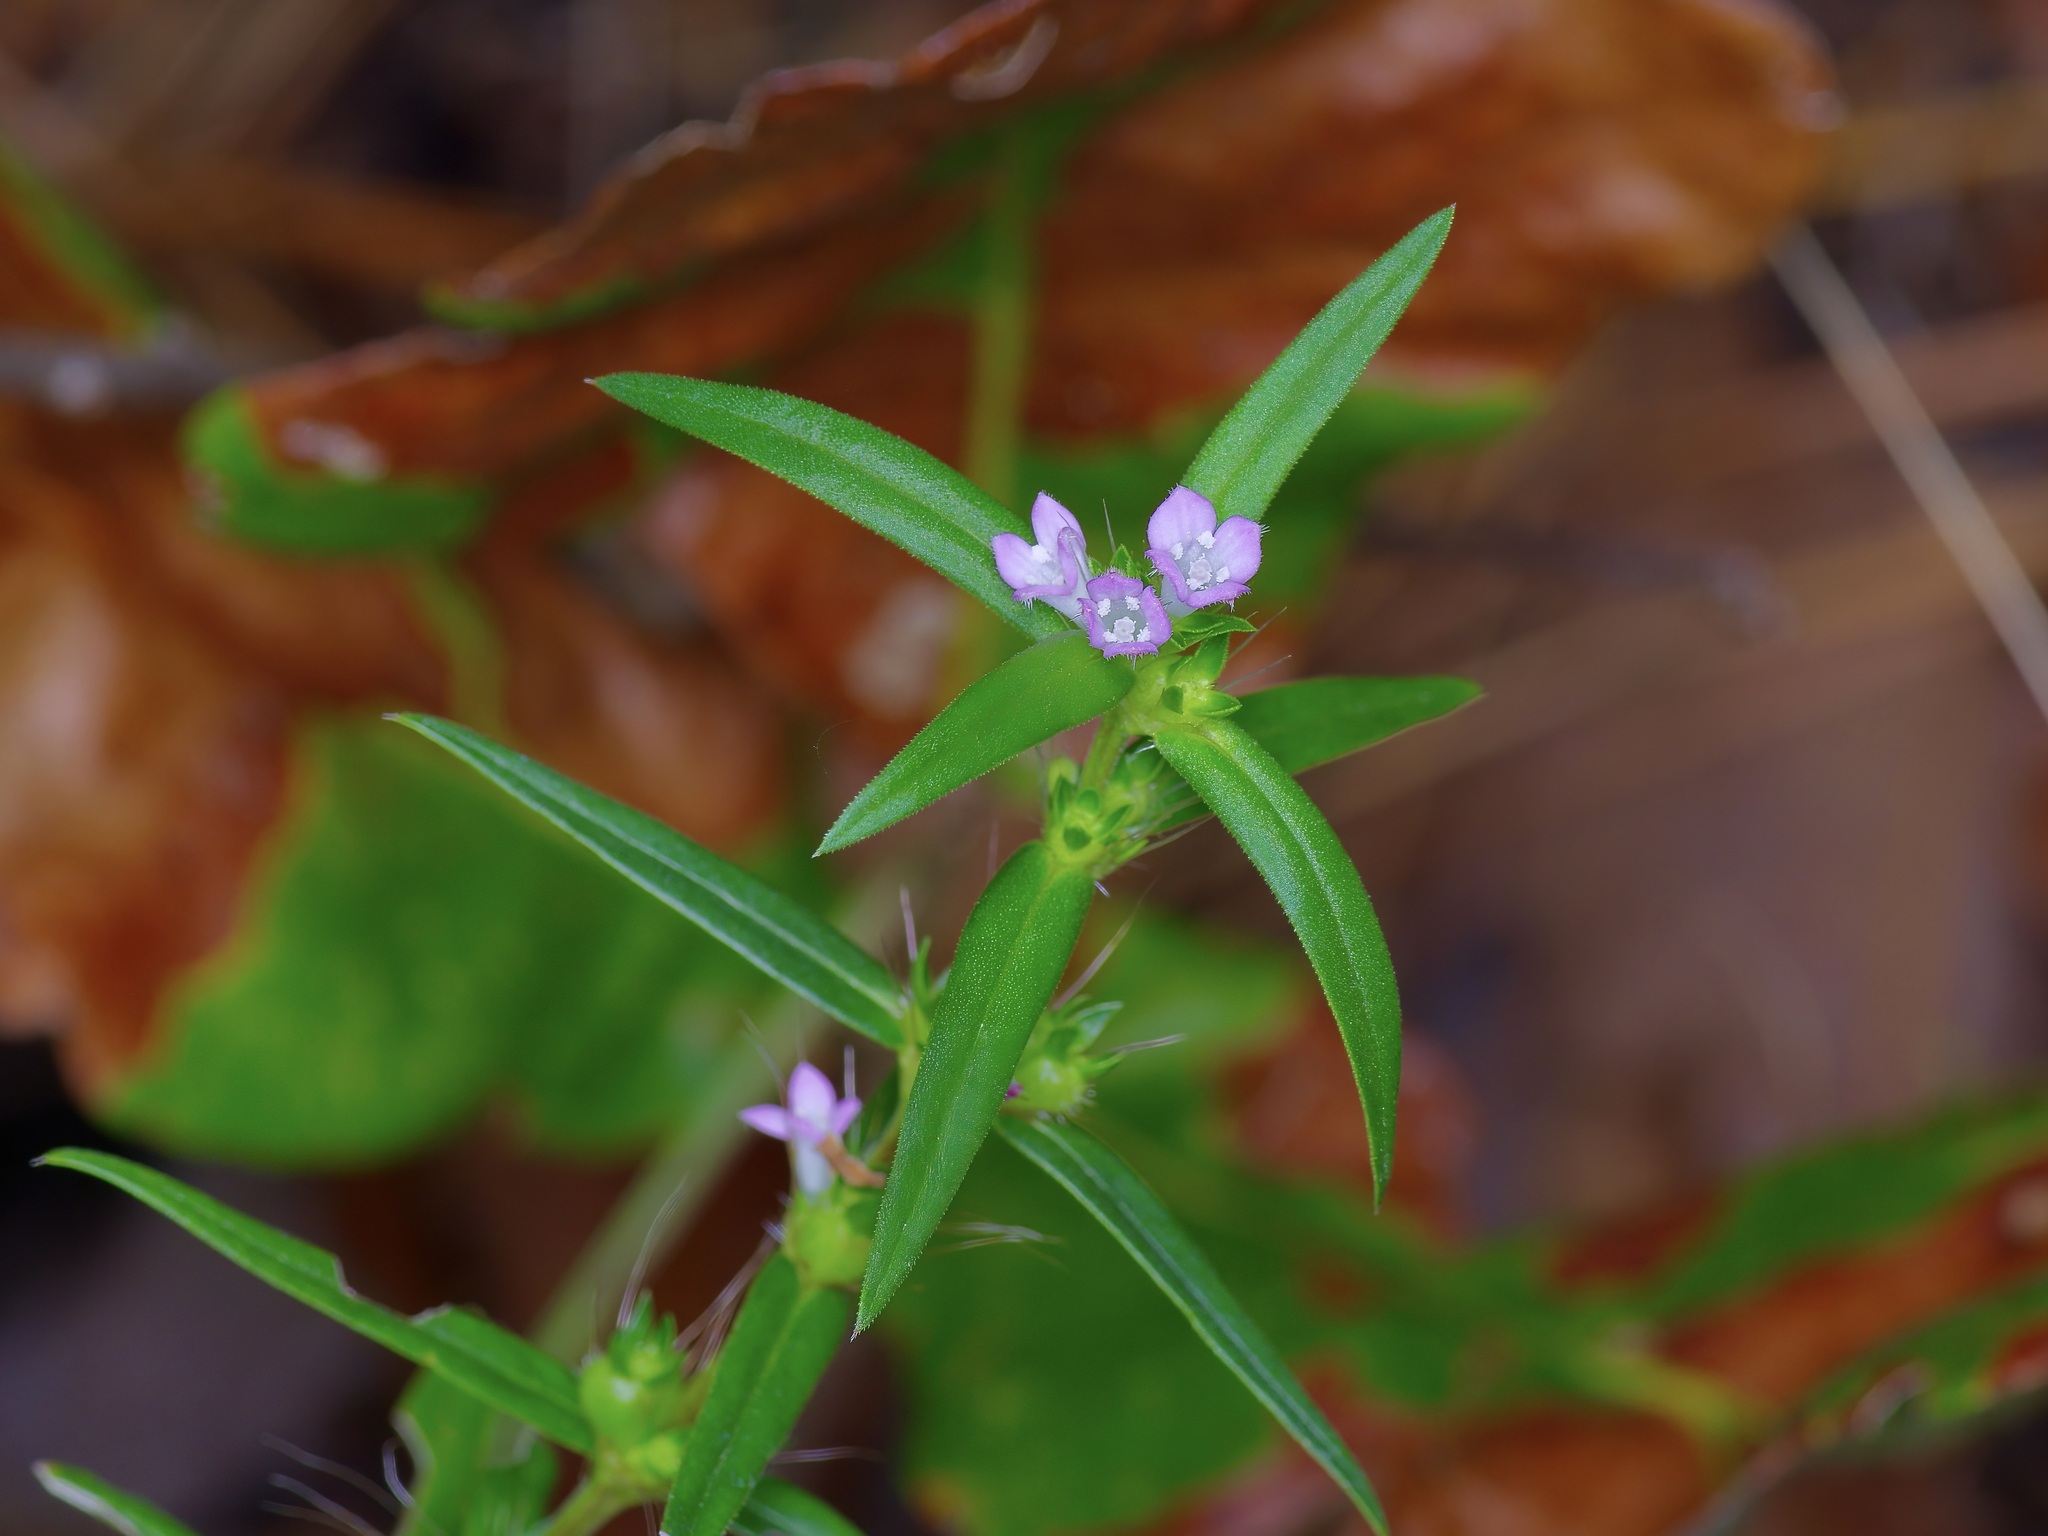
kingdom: Plantae
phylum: Tracheophyta
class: Magnoliopsida
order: Gentianales
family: Rubiaceae
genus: Hexasepalum
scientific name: Hexasepalum teres
